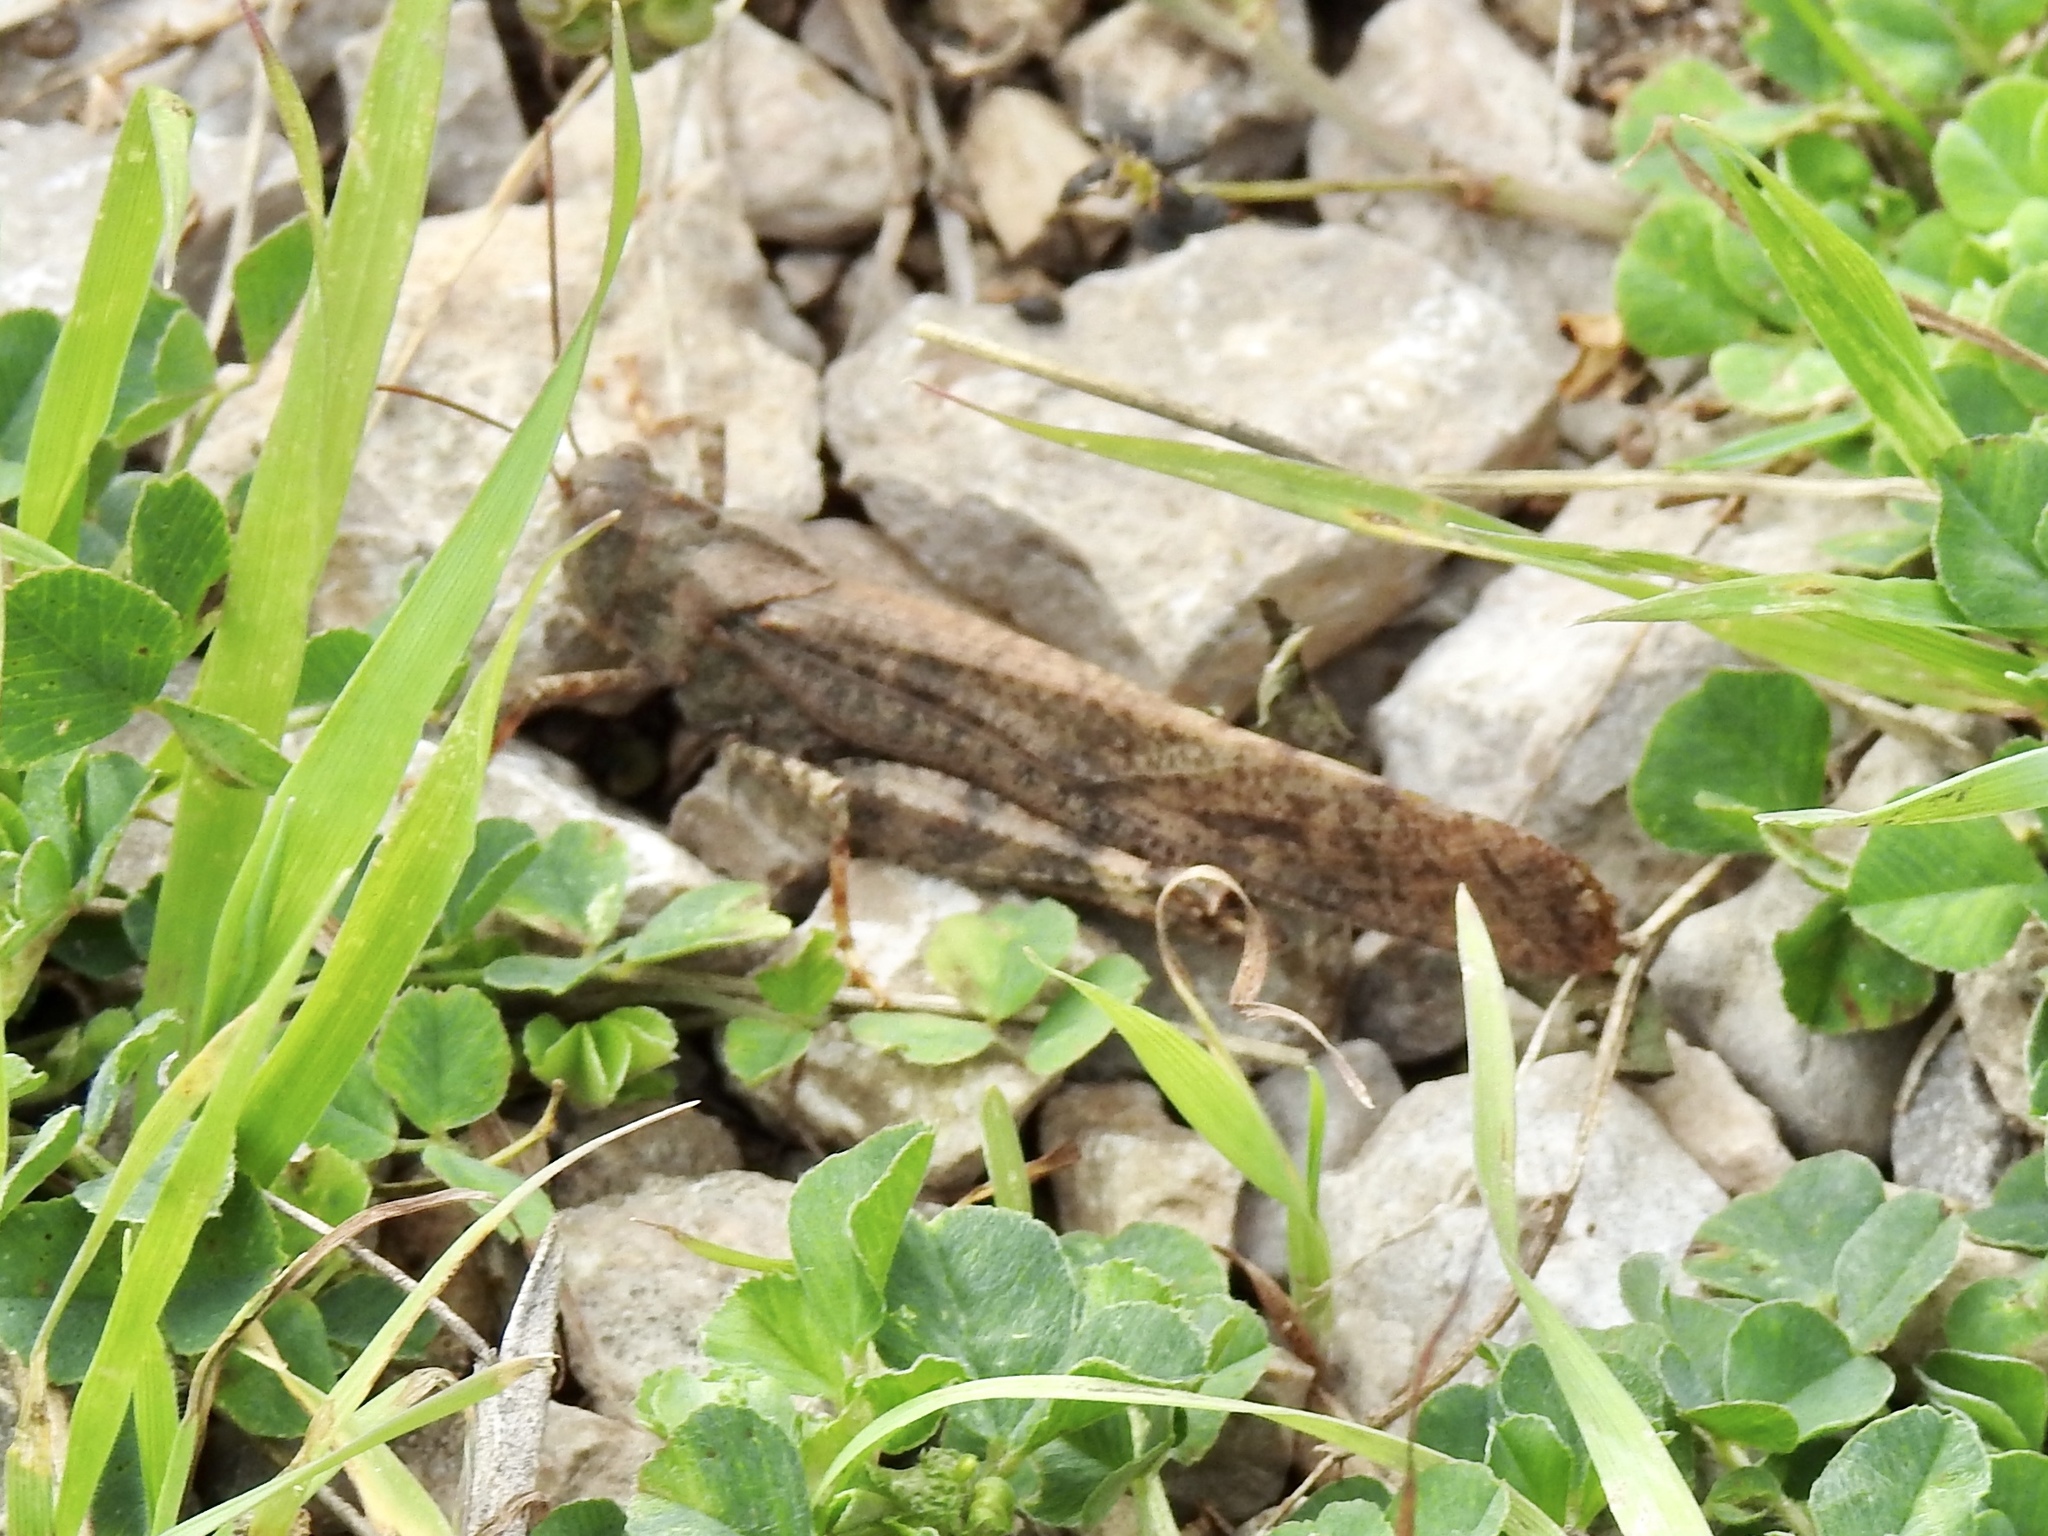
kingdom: Animalia
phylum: Arthropoda
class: Insecta
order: Orthoptera
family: Acrididae
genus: Dissosteira
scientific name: Dissosteira carolina
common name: Carolina grasshopper
